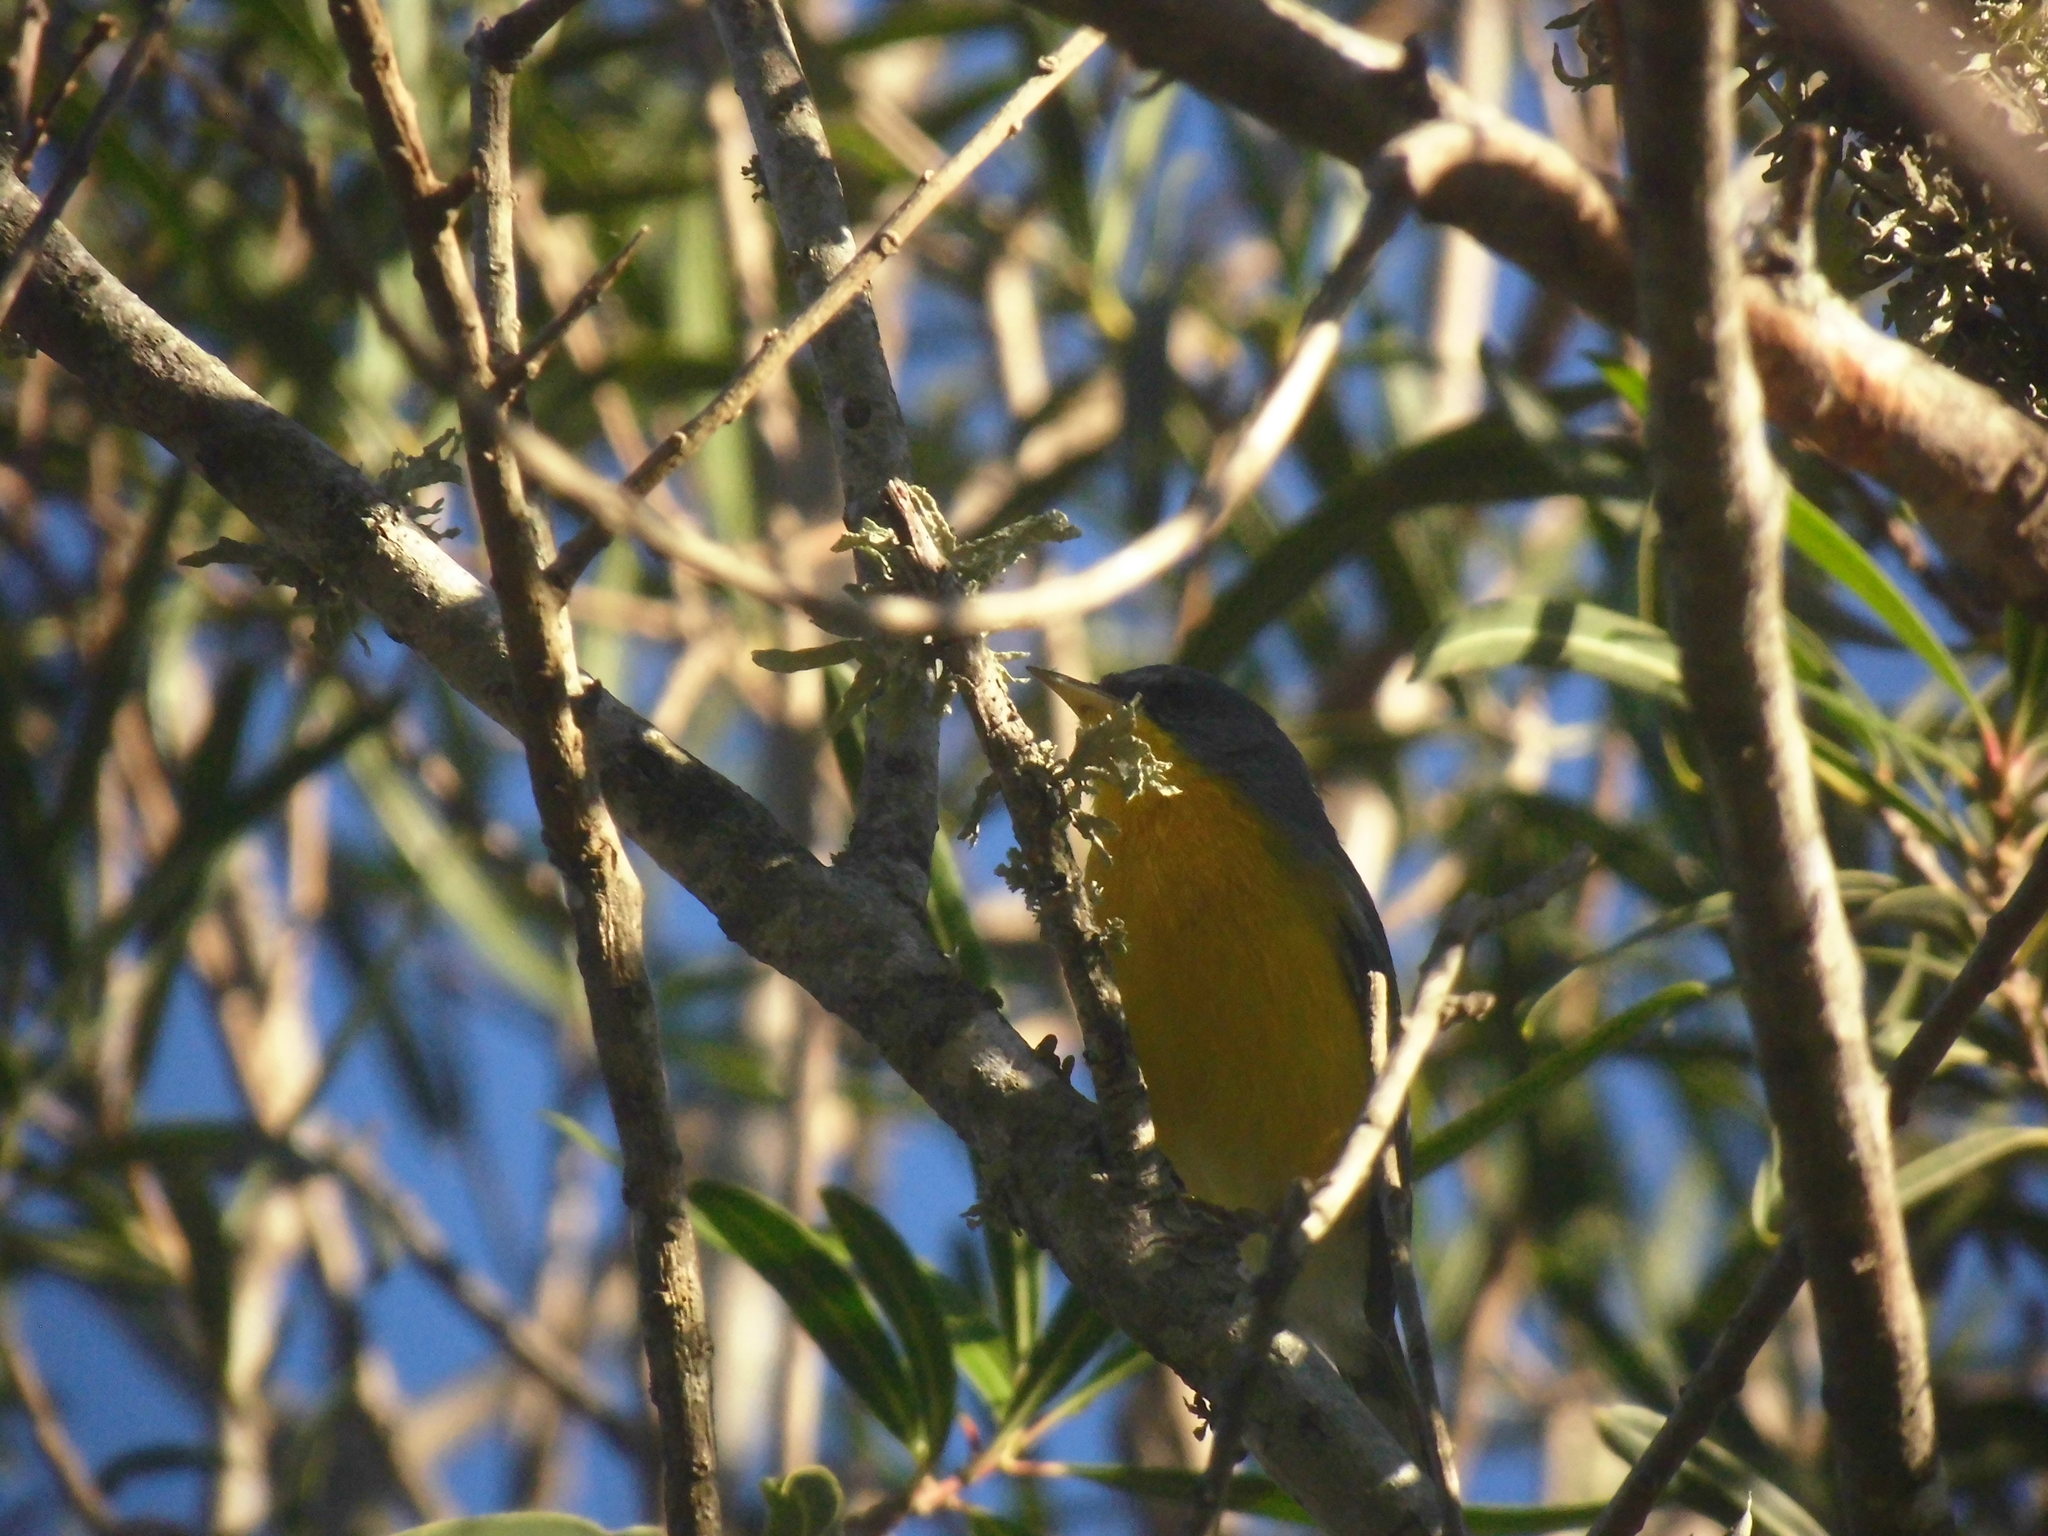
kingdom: Animalia
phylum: Chordata
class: Aves
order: Passeriformes
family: Parulidae
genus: Setophaga
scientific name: Setophaga pitiayumi
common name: Tropical parula
